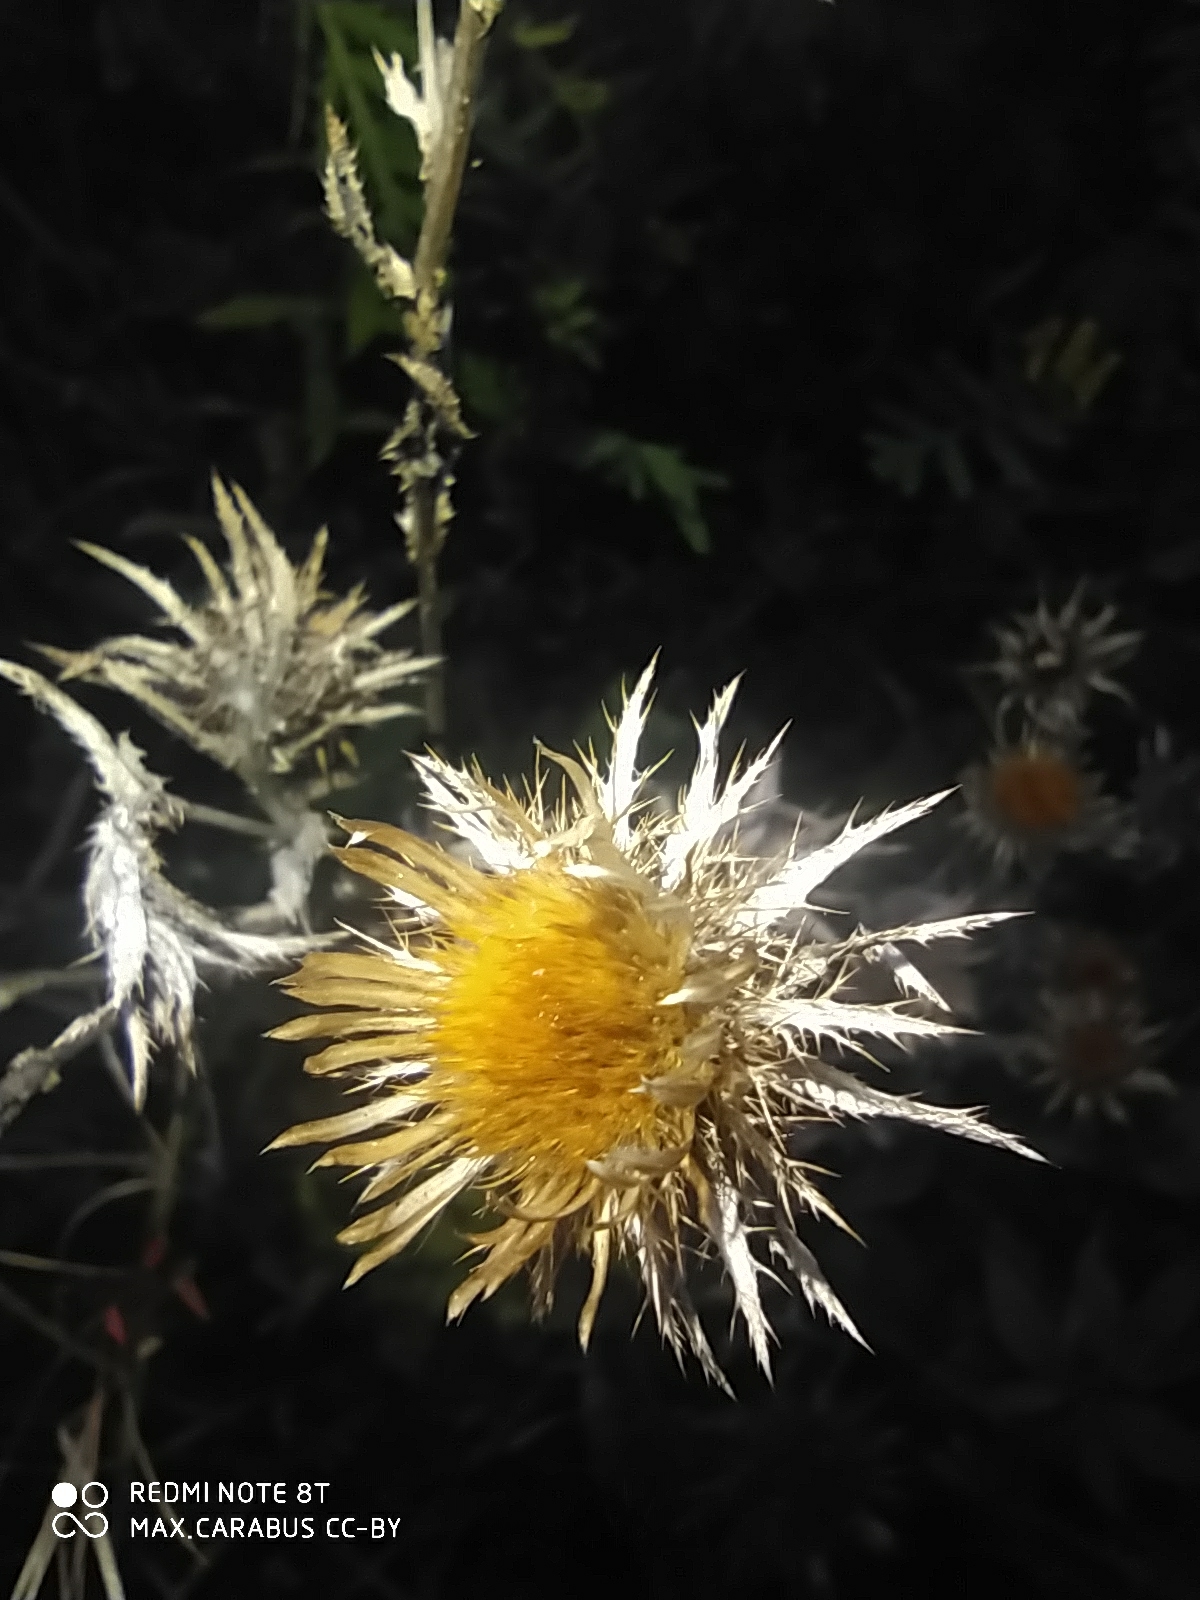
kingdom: Plantae
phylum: Tracheophyta
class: Magnoliopsida
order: Asterales
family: Asteraceae
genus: Carlina
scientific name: Carlina biebersteinii
